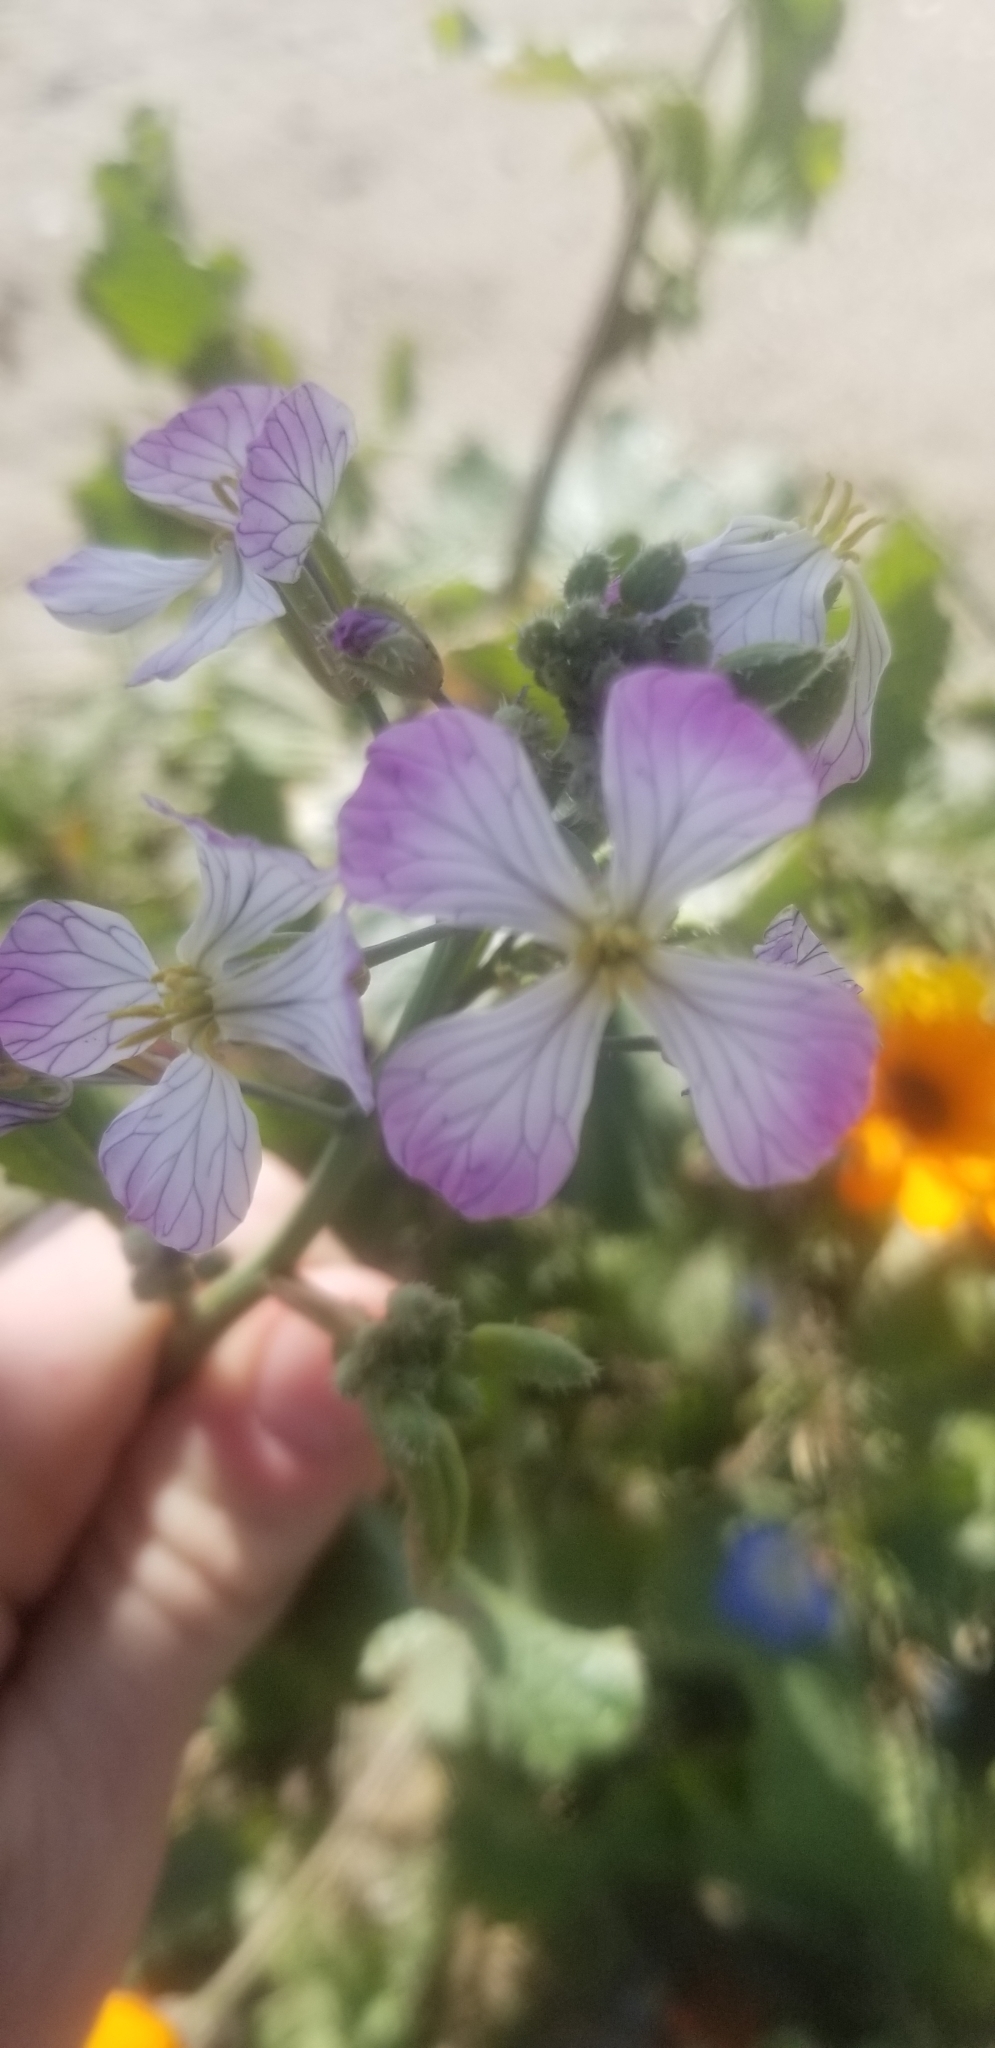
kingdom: Plantae
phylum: Tracheophyta
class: Magnoliopsida
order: Brassicales
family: Brassicaceae
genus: Raphanus
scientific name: Raphanus sativus
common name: Cultivated radish
